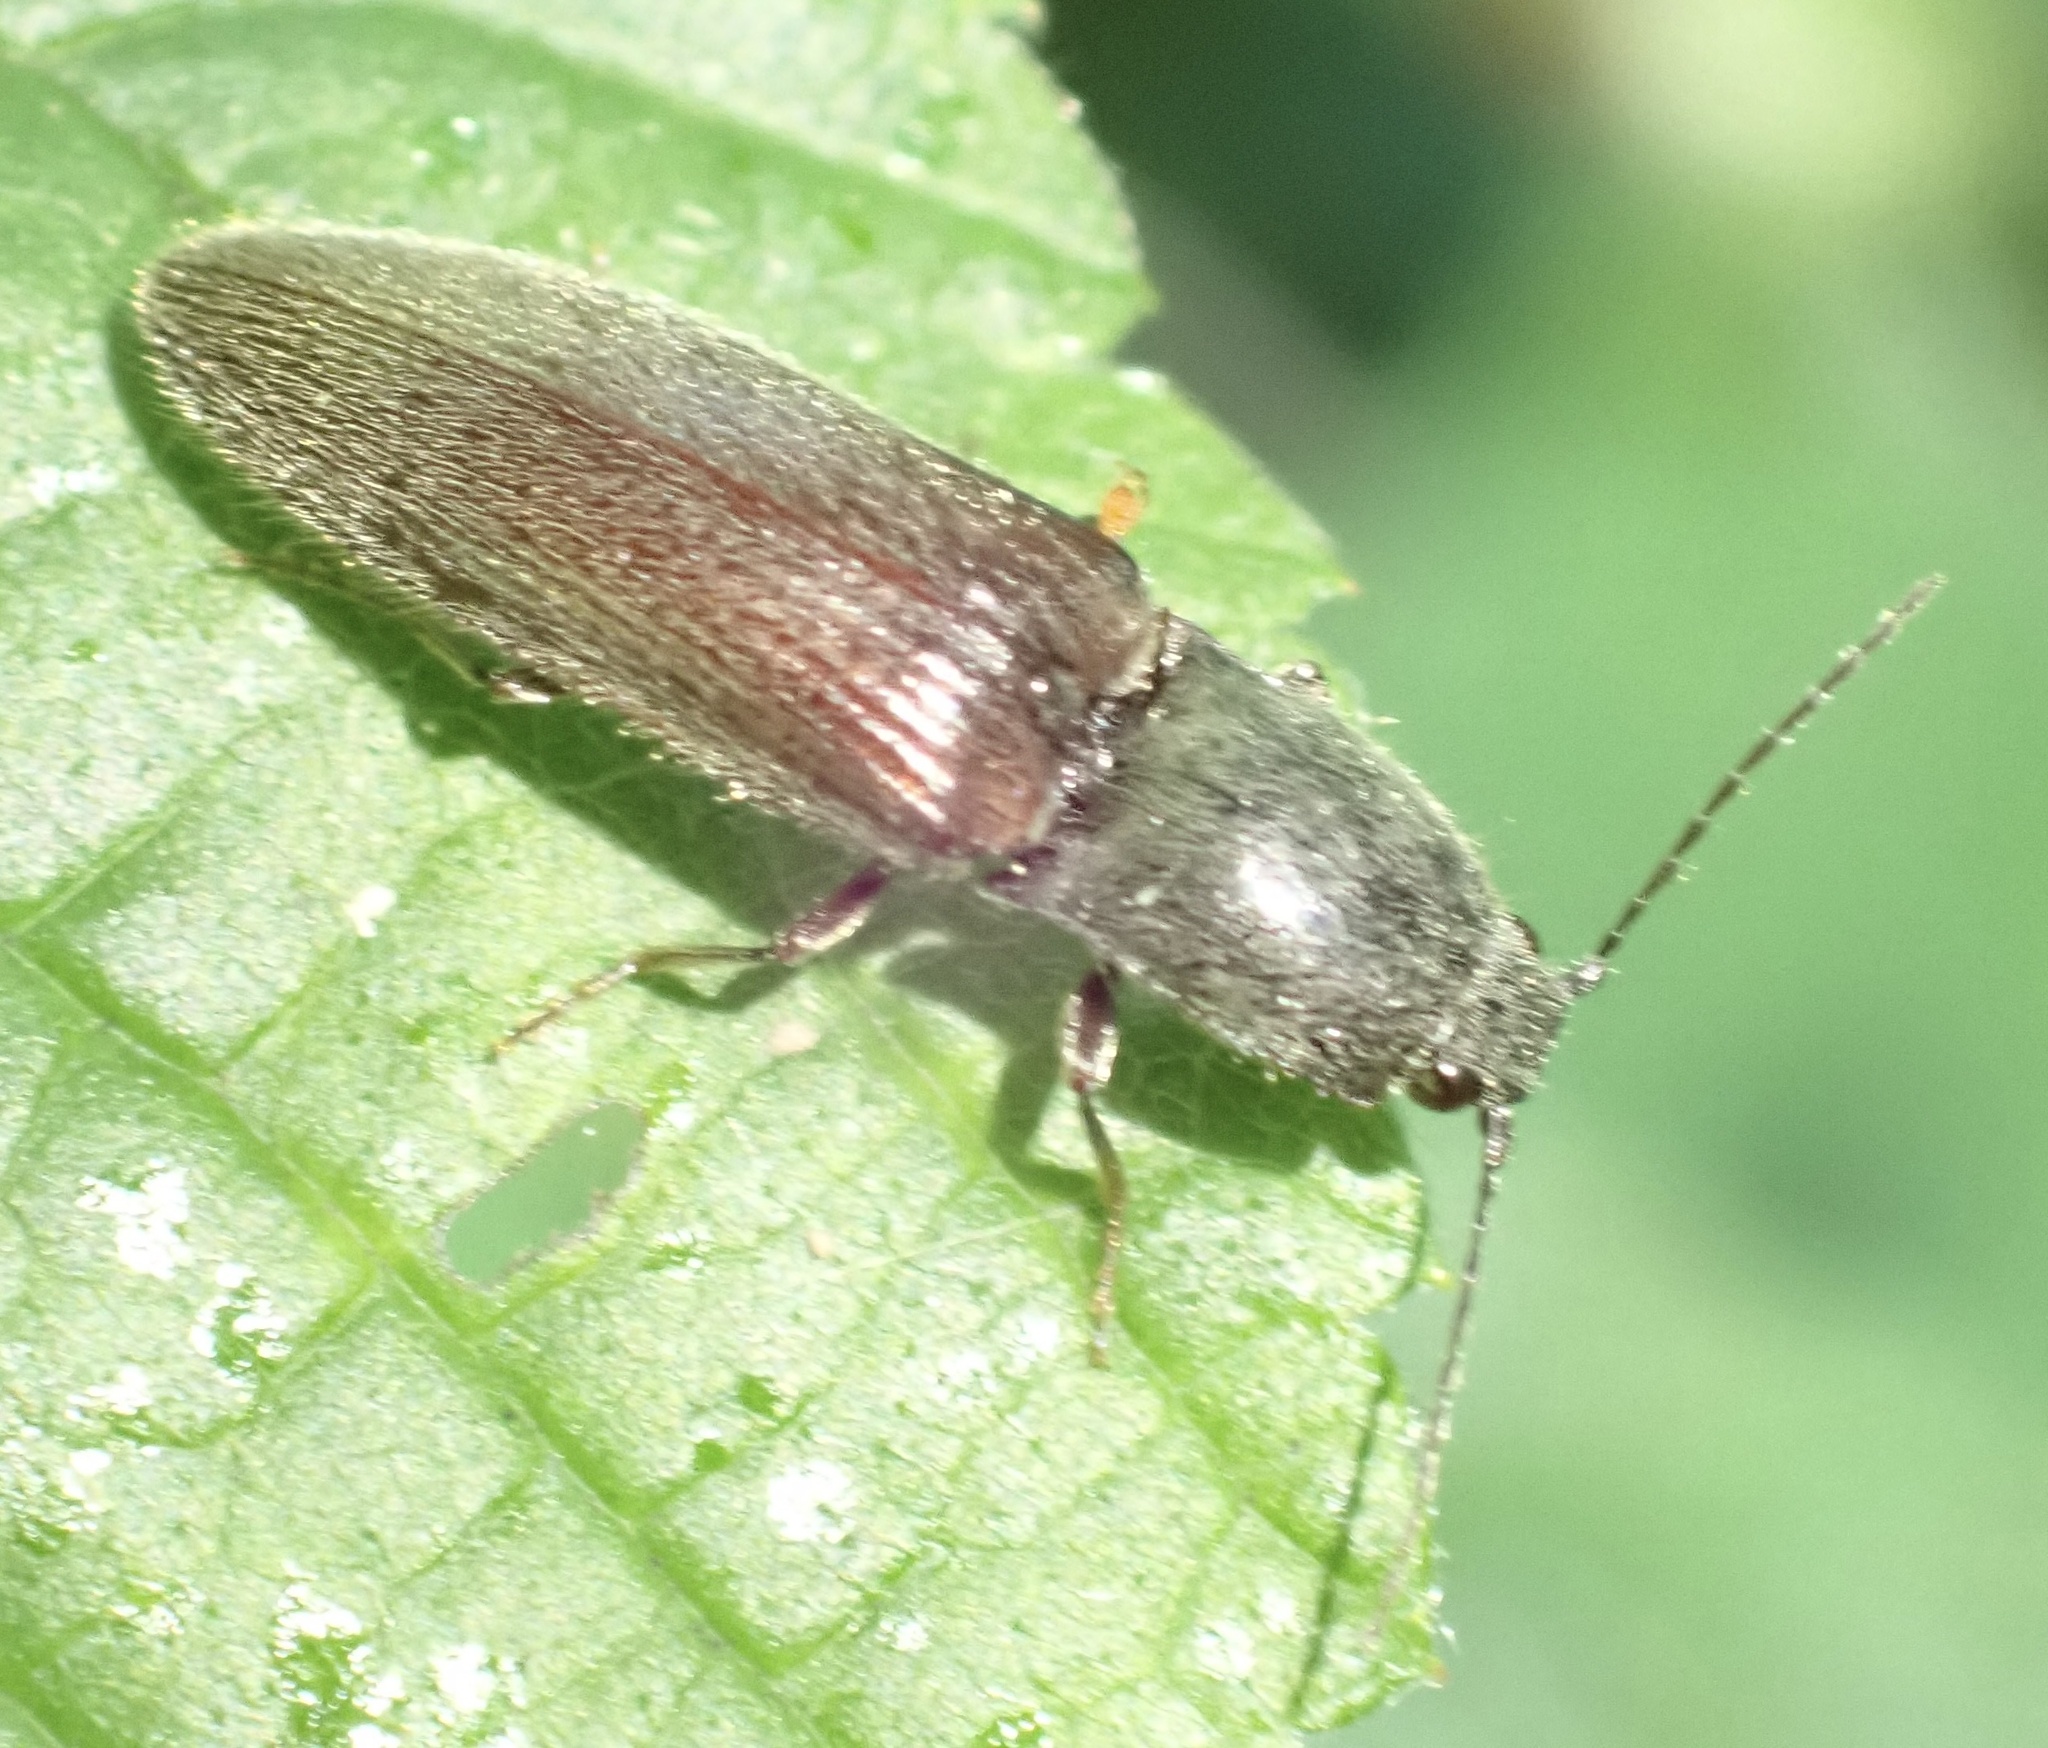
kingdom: Animalia
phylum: Arthropoda
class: Insecta
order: Coleoptera
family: Elateridae
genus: Athous
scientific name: Athous haemorrhoidalis
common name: Red-brown click beetle
